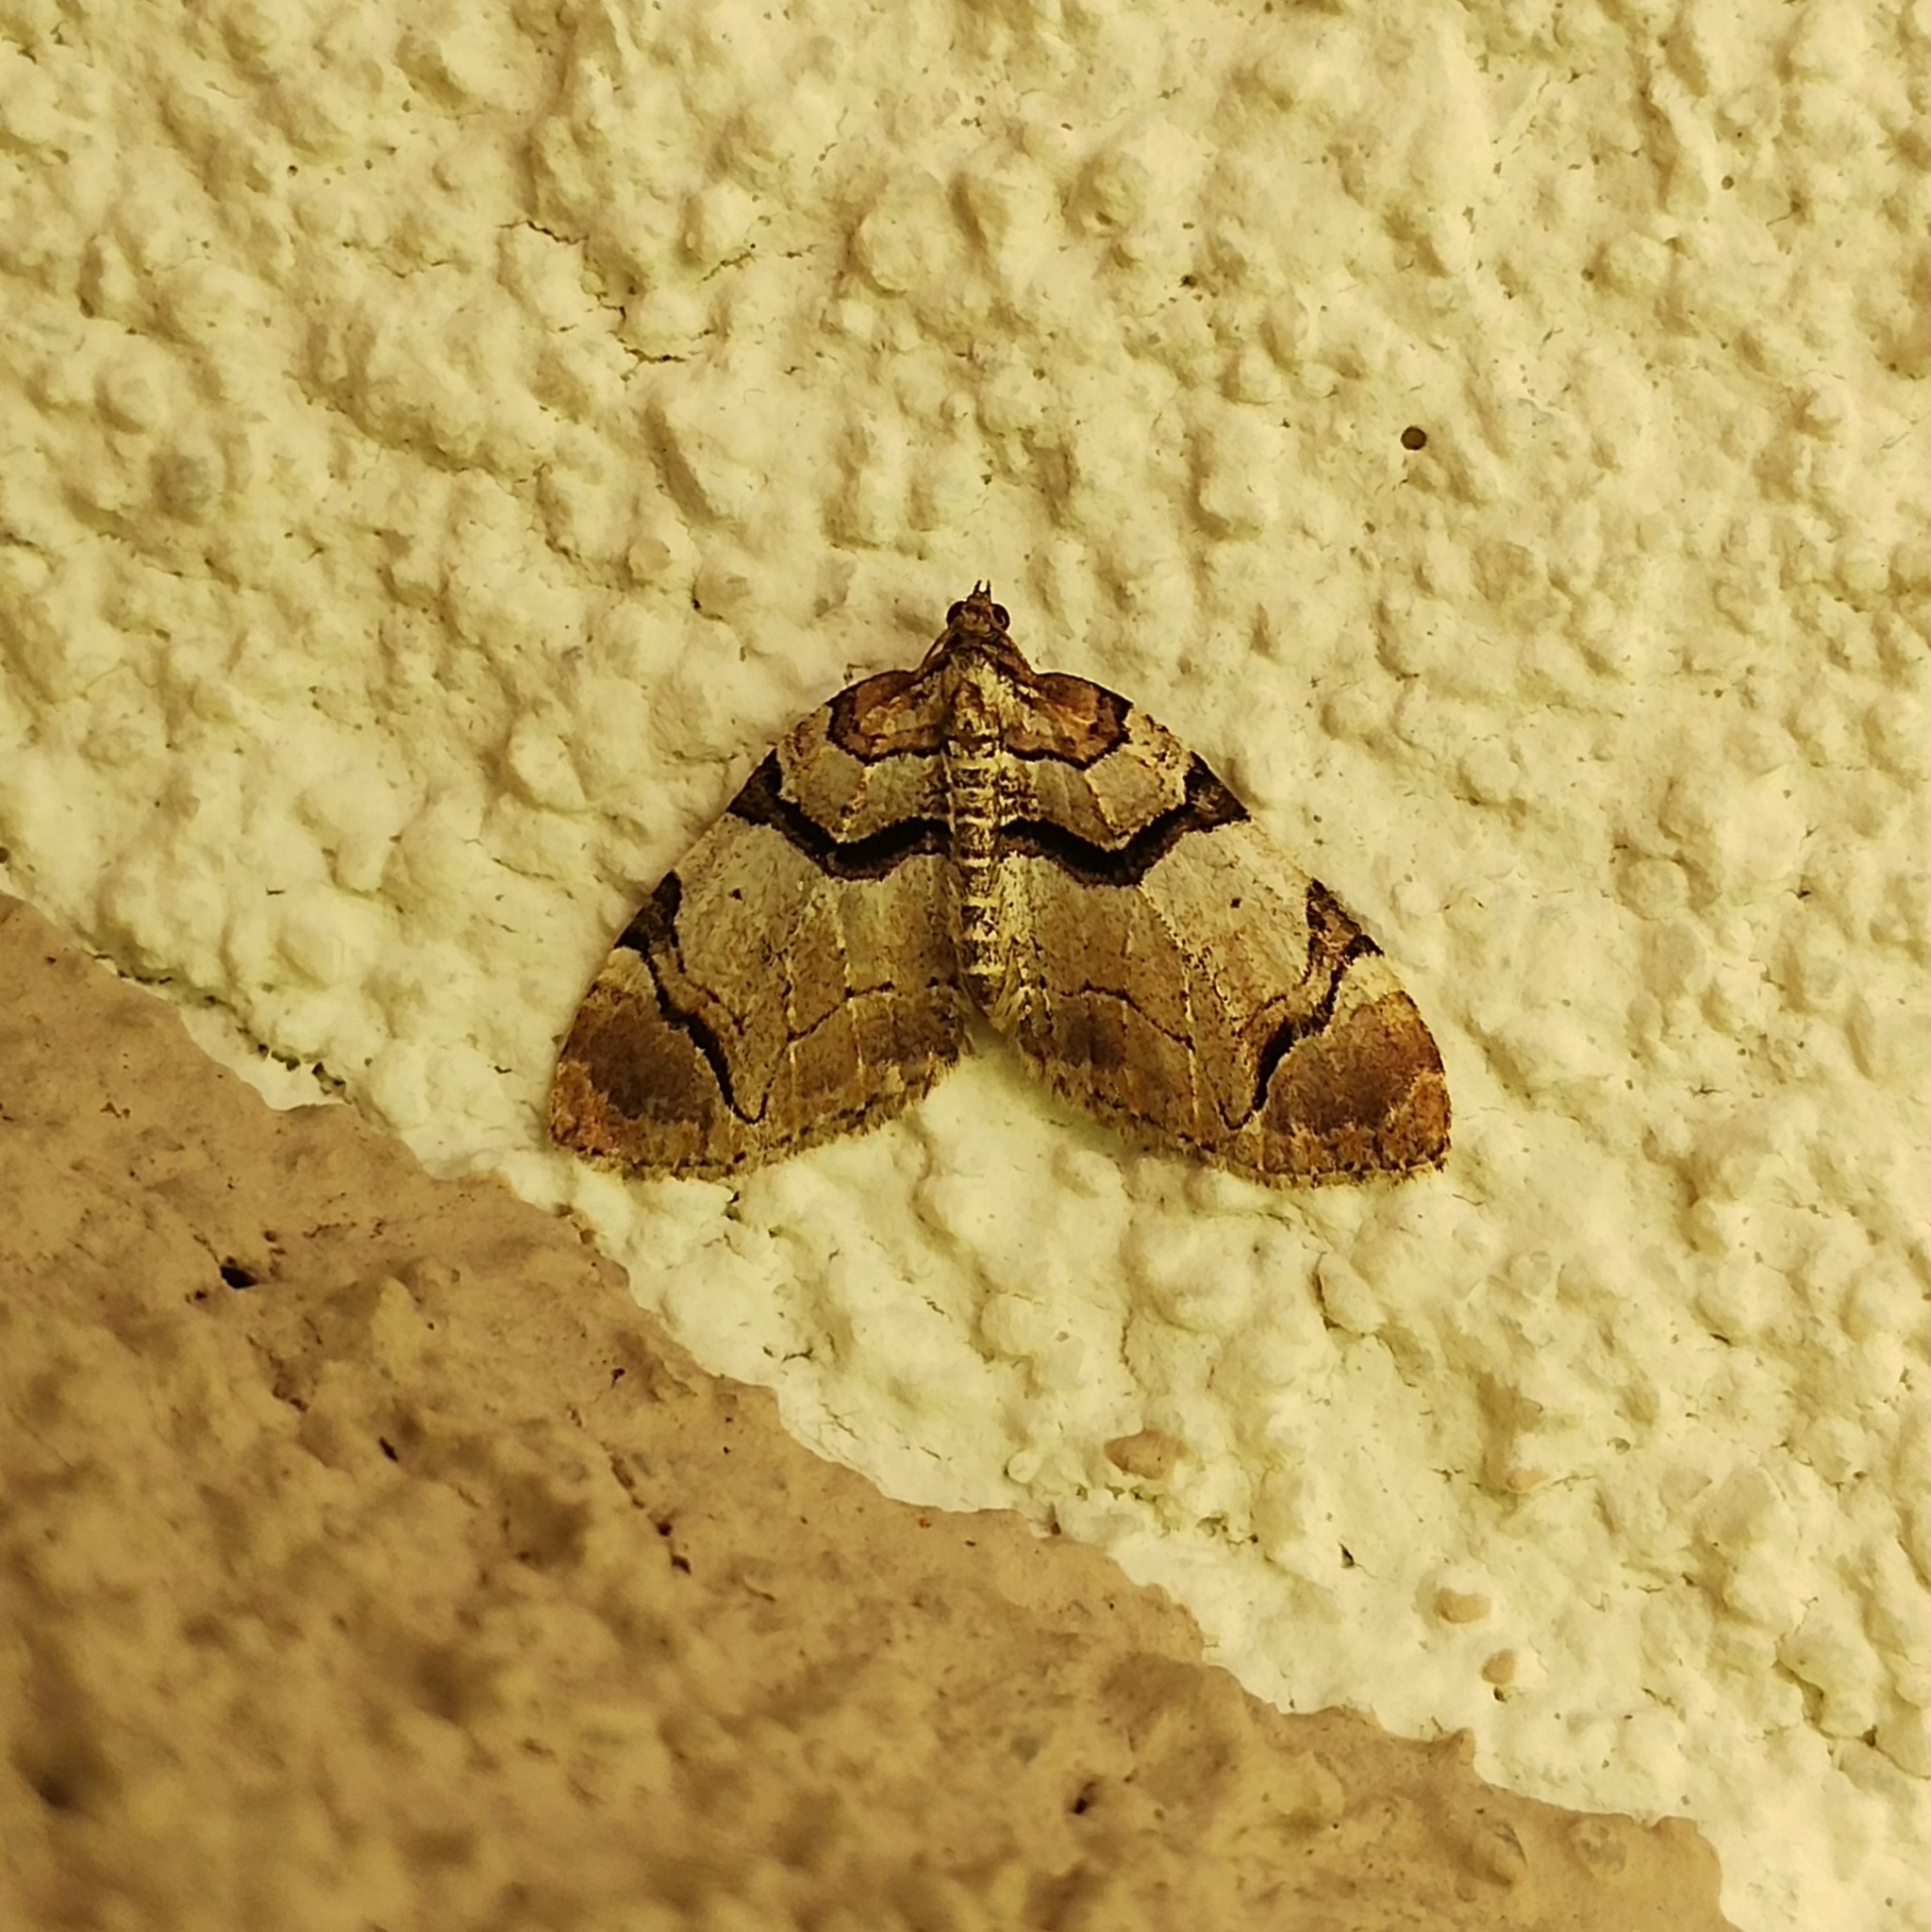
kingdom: Animalia
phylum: Arthropoda
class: Insecta
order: Lepidoptera
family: Geometridae
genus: Anticlea
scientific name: Anticlea derivata
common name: Streamer
